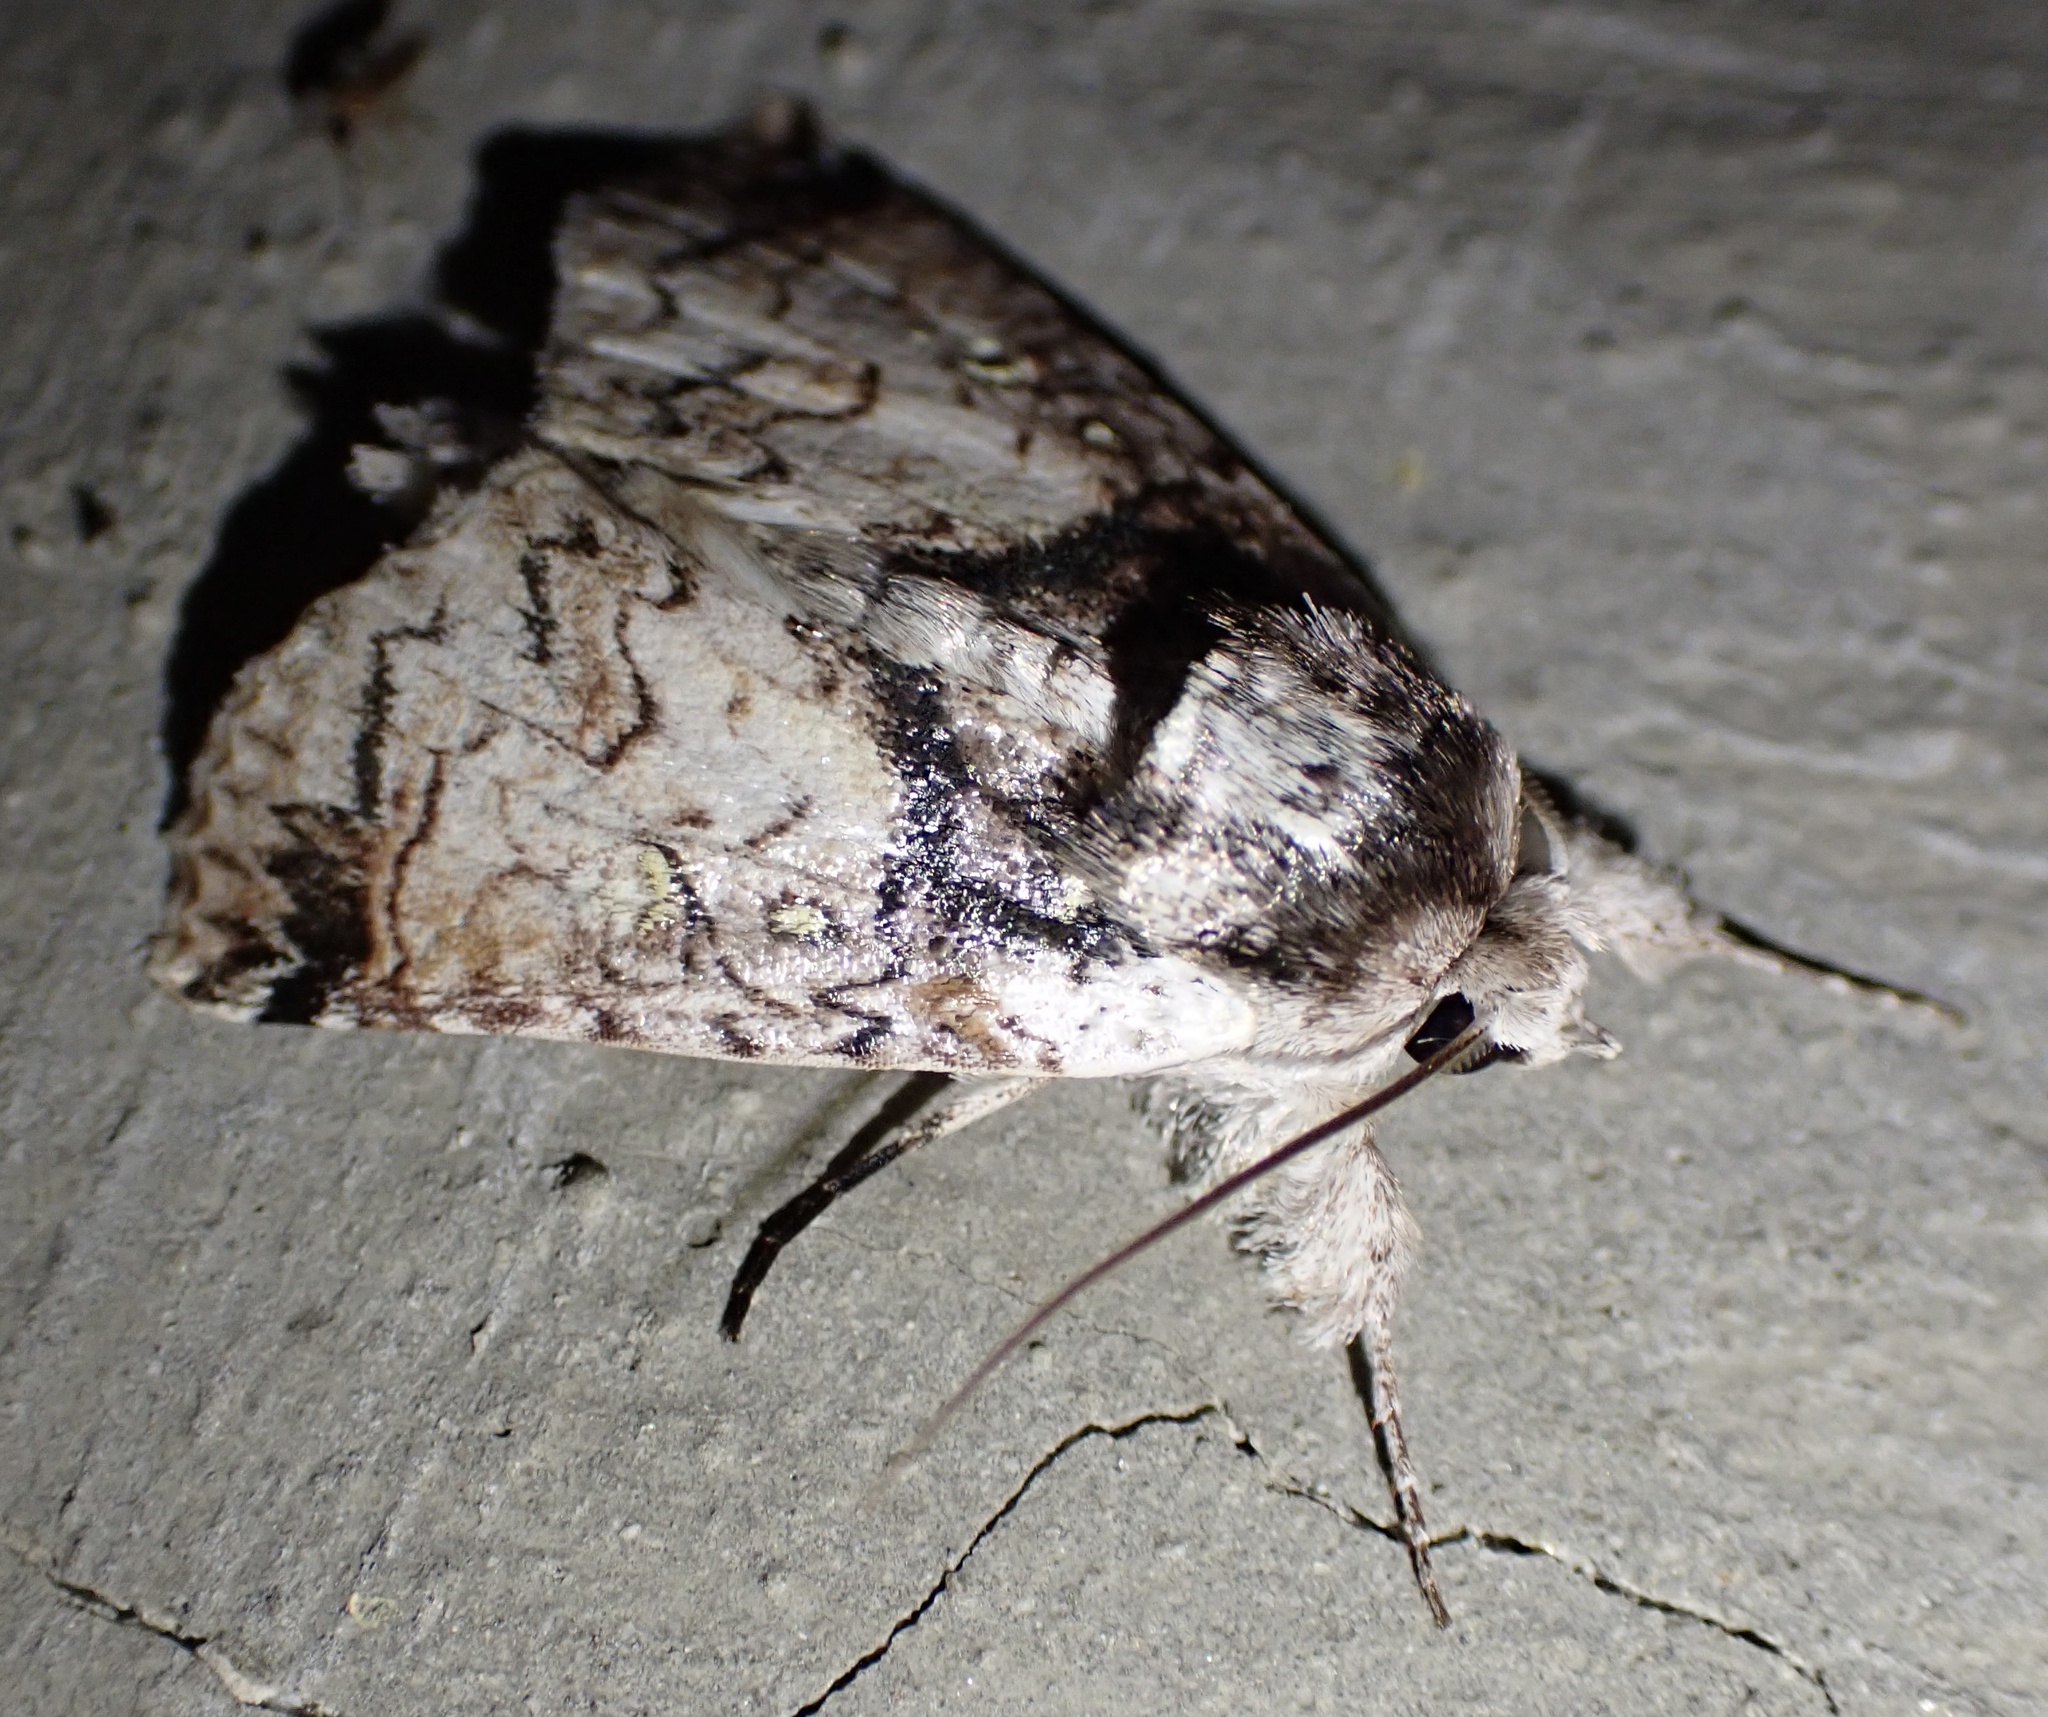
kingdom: Animalia
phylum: Arthropoda
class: Insecta
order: Lepidoptera
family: Nolidae
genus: Macrobarasa
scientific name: Macrobarasa xantholopha
